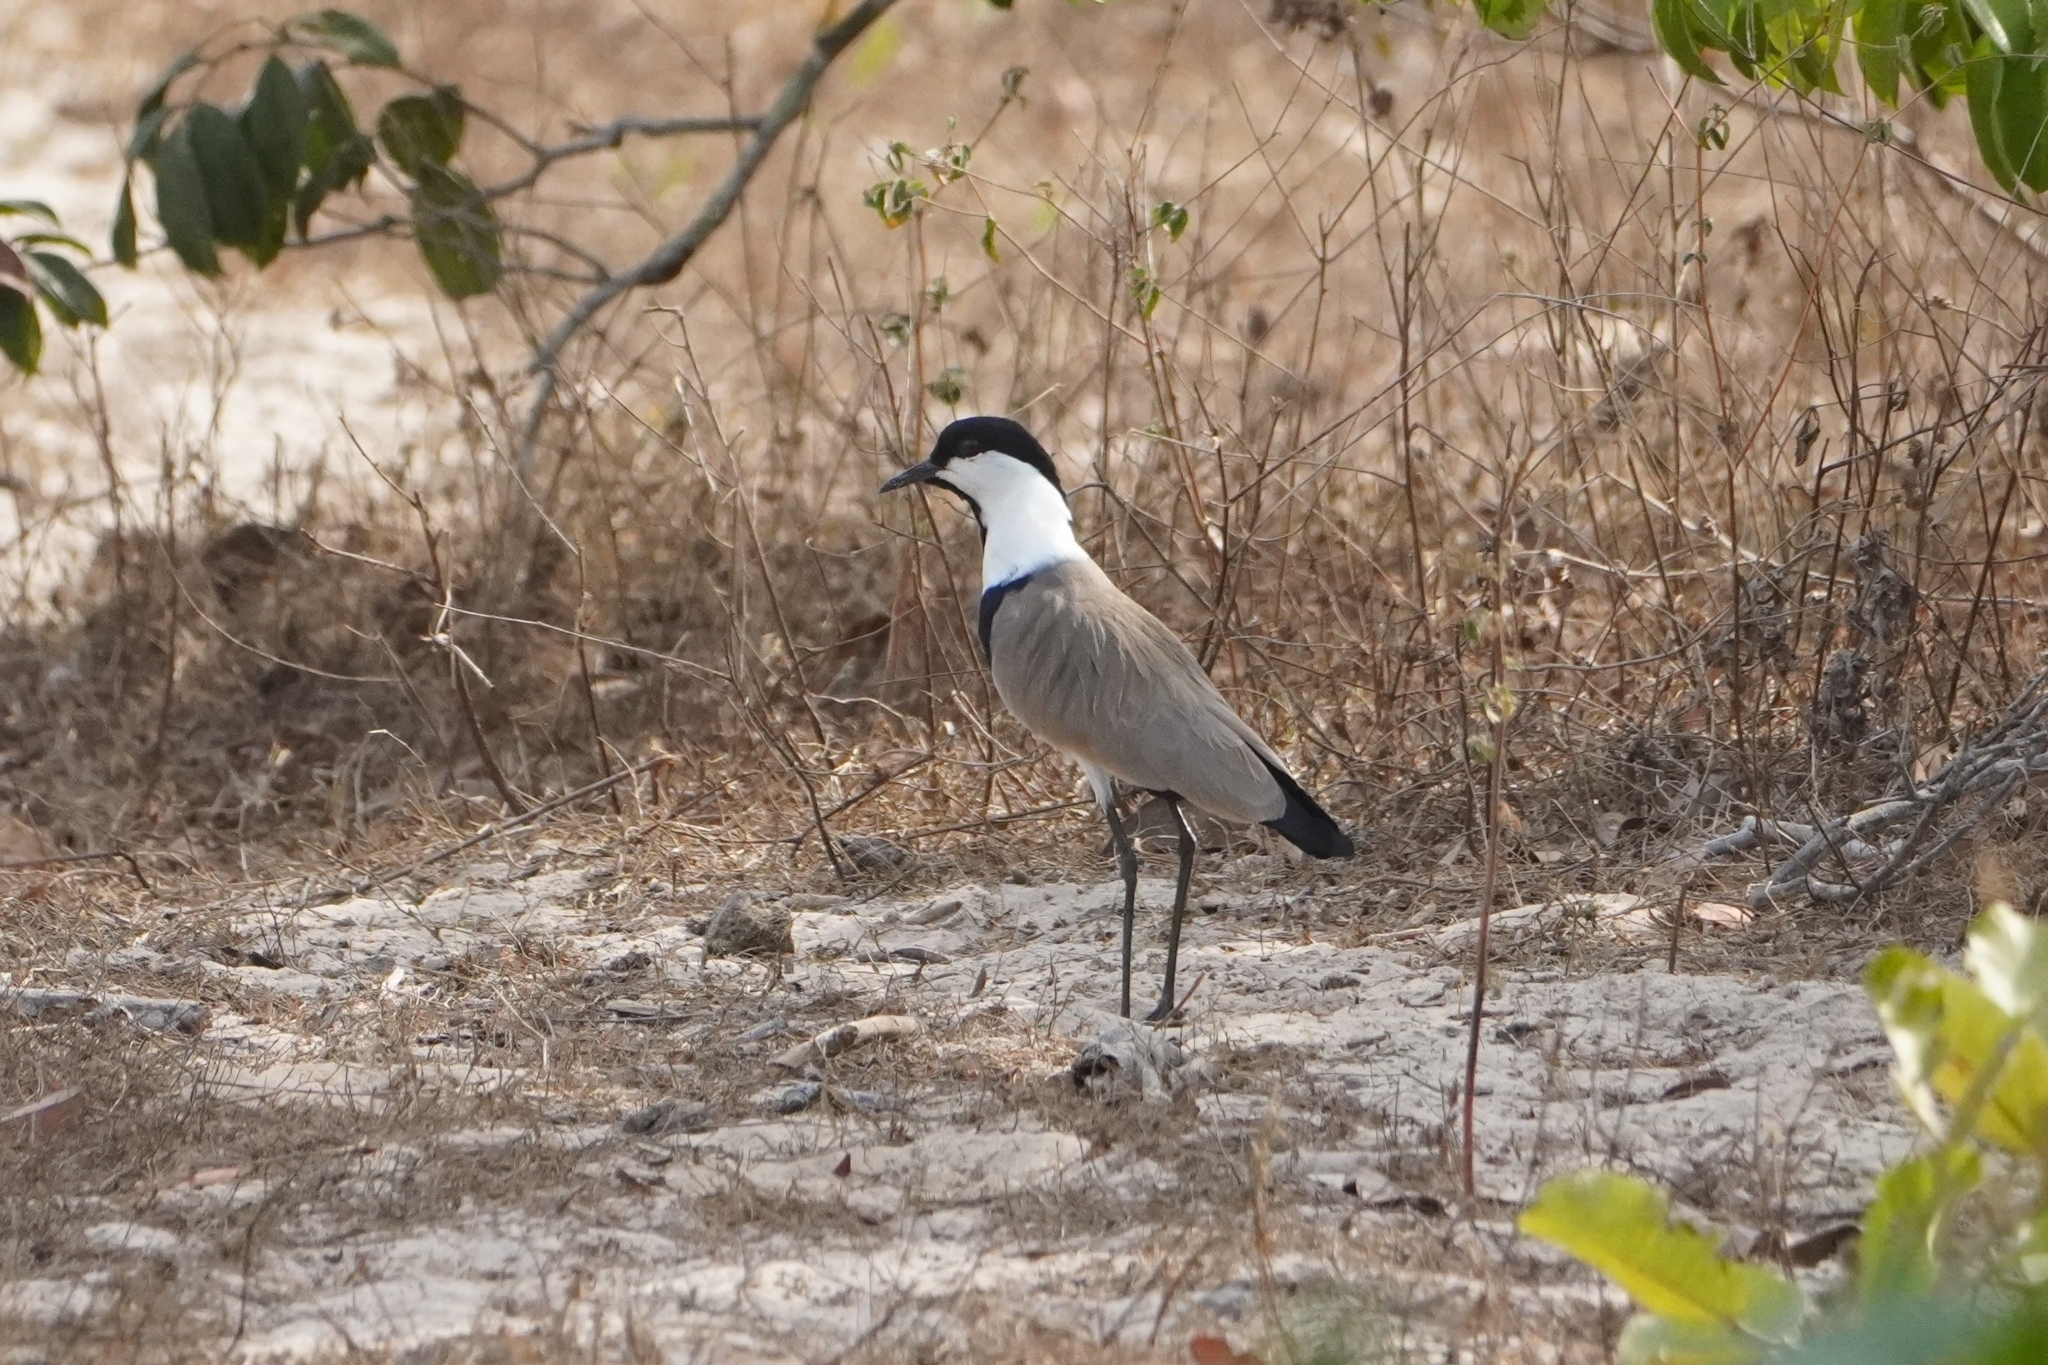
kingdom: Animalia
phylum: Chordata
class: Aves
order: Charadriiformes
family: Charadriidae
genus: Vanellus
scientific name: Vanellus spinosus
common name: Spur-winged lapwing
